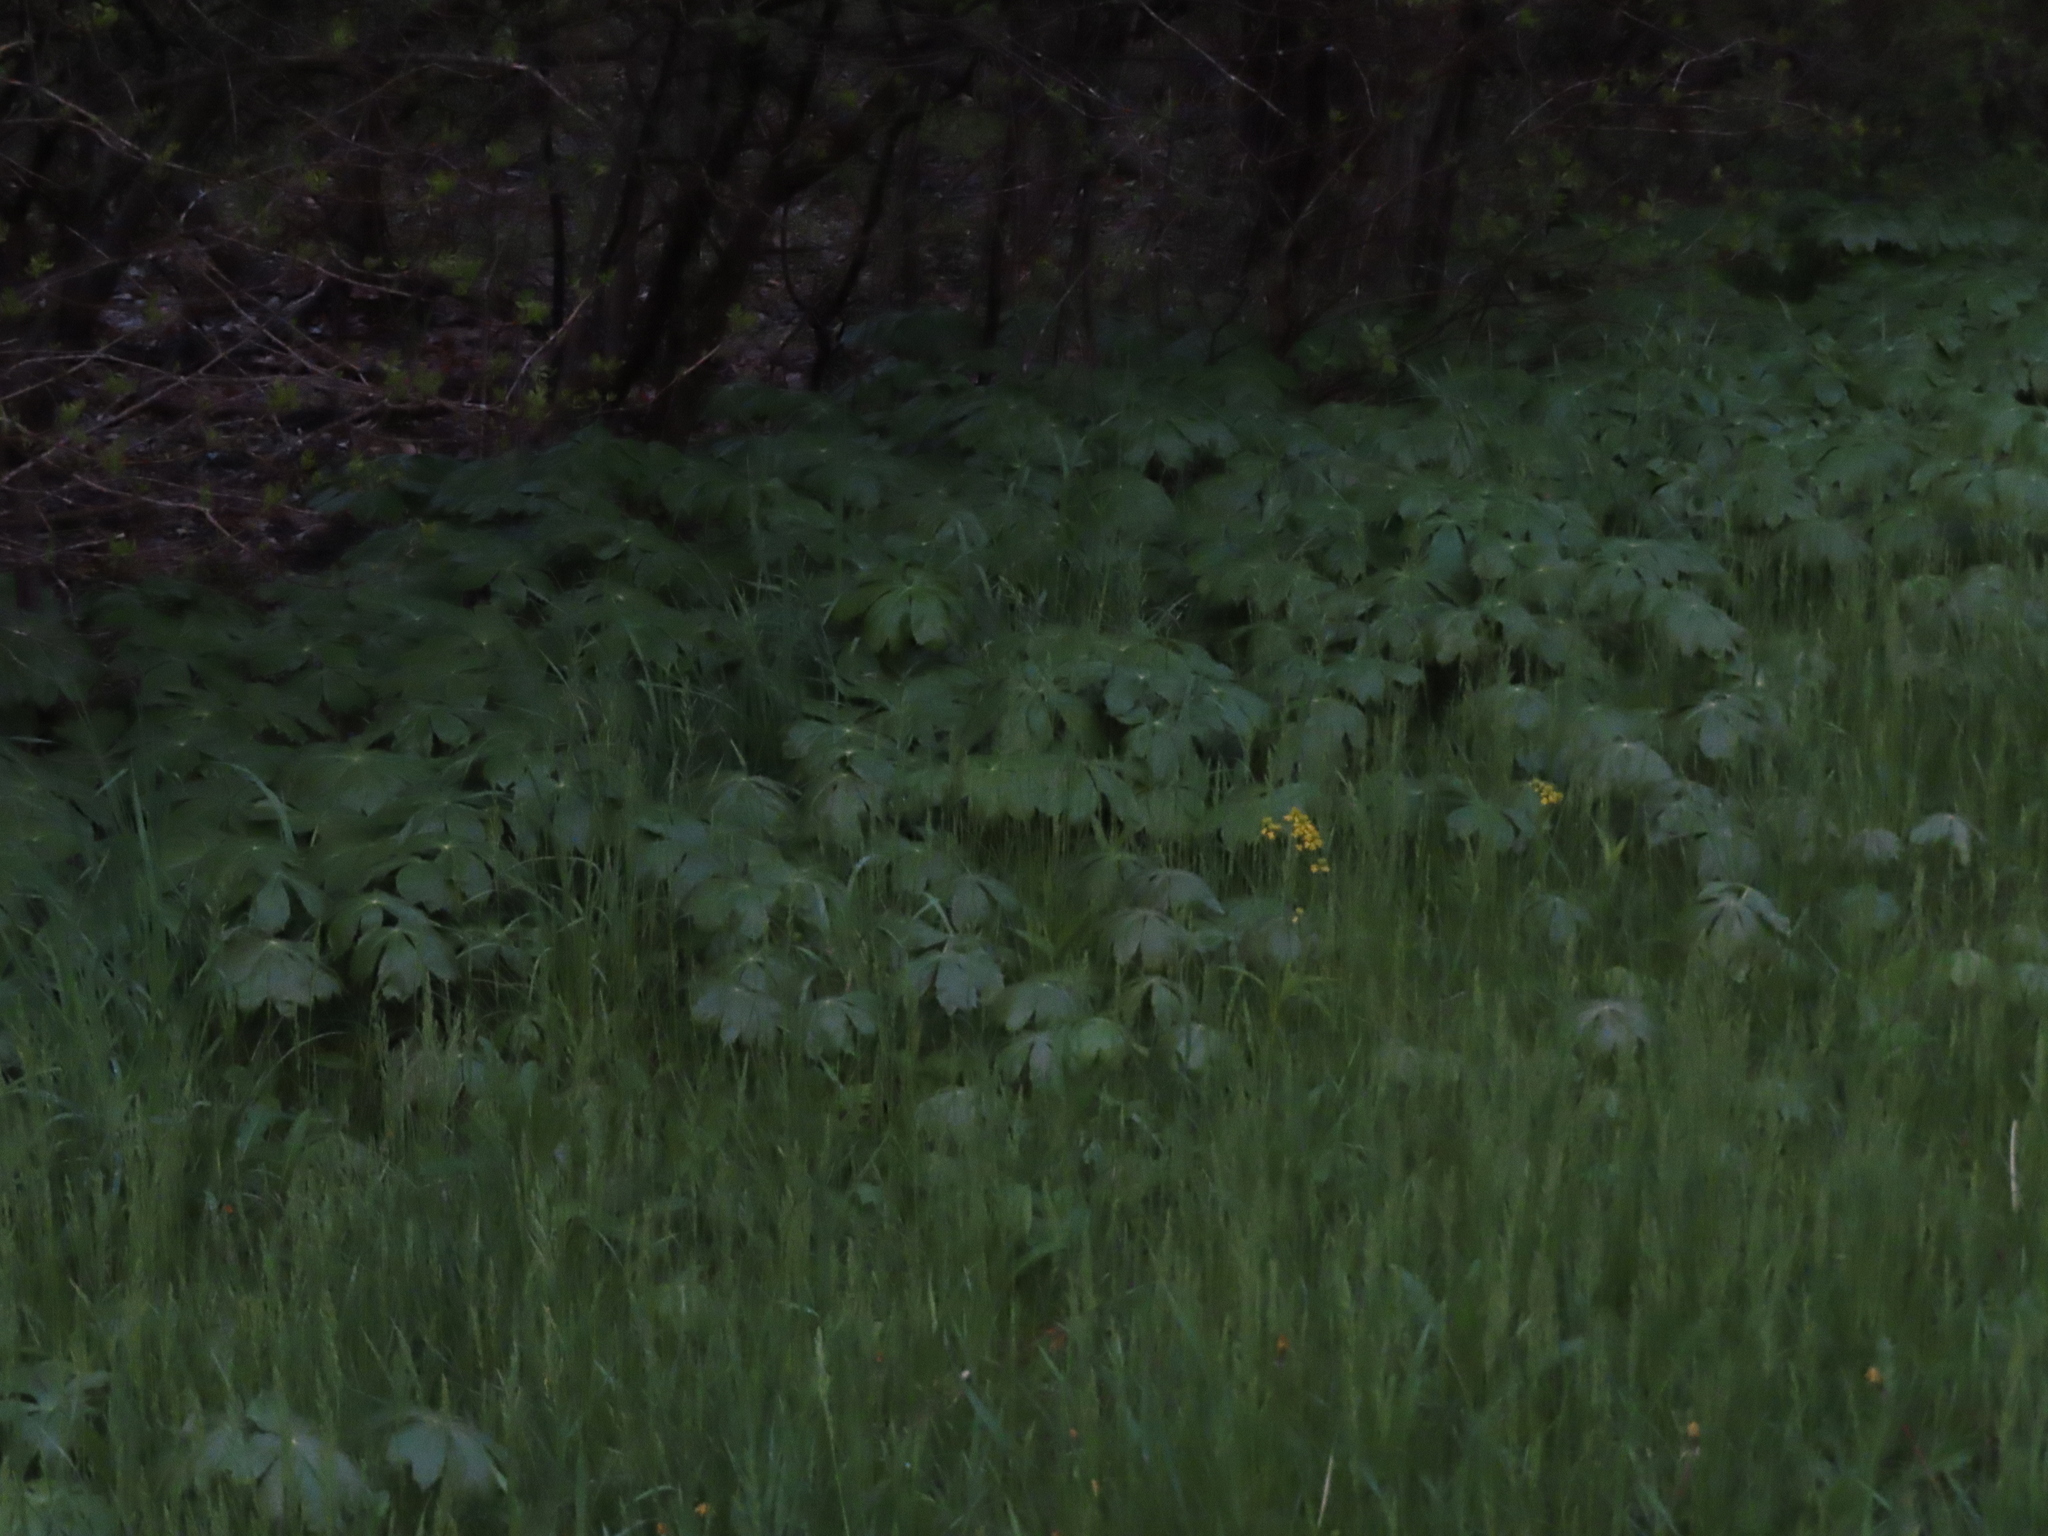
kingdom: Plantae
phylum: Tracheophyta
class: Magnoliopsida
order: Ranunculales
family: Berberidaceae
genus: Podophyllum
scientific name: Podophyllum peltatum
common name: Wild mandrake
